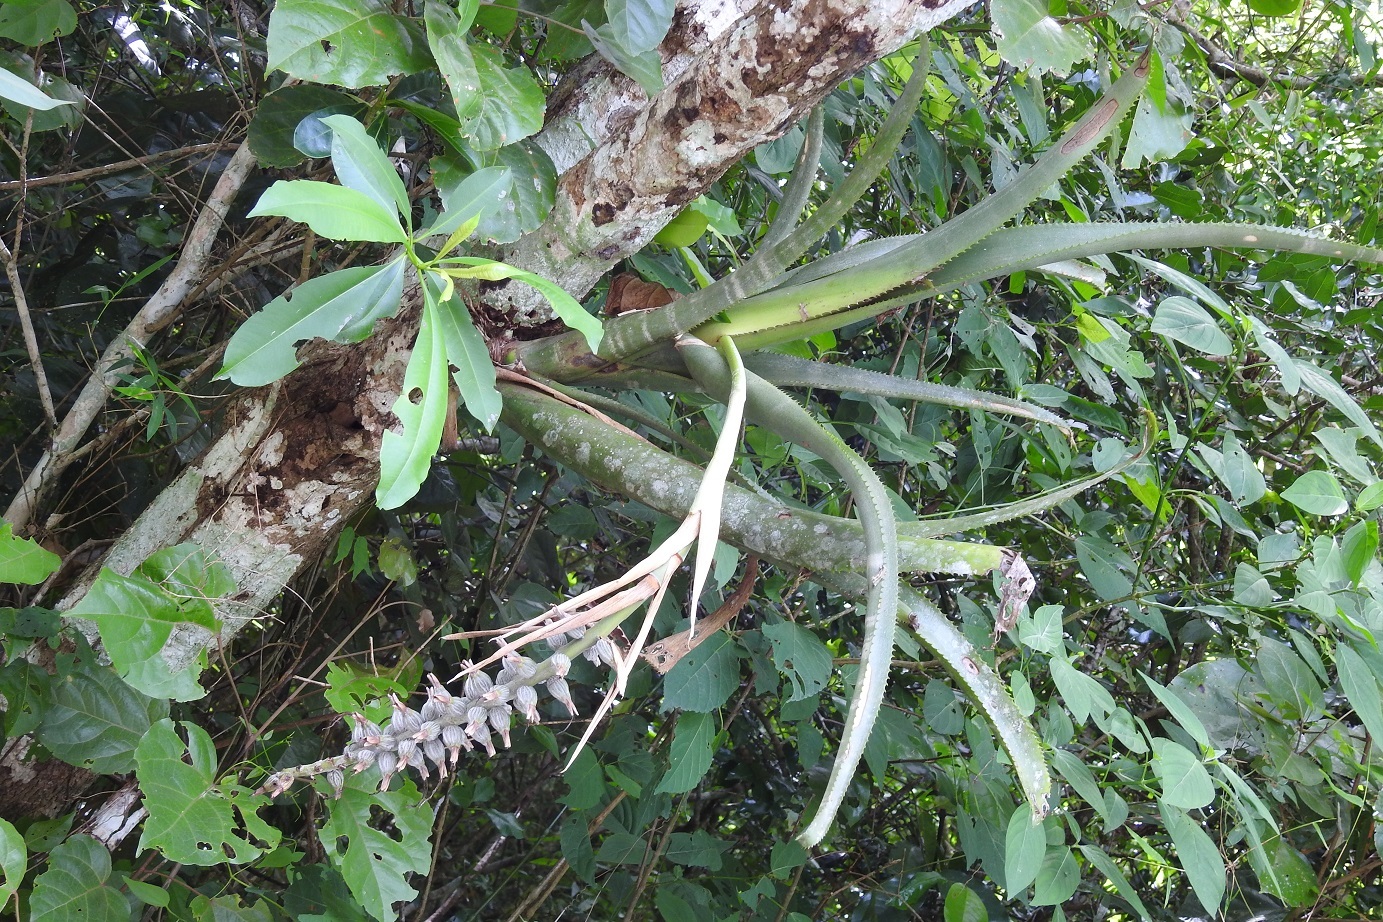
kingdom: Plantae
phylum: Tracheophyta
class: Liliopsida
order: Poales
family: Bromeliaceae
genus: Billbergia
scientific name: Billbergia pallidiflora
